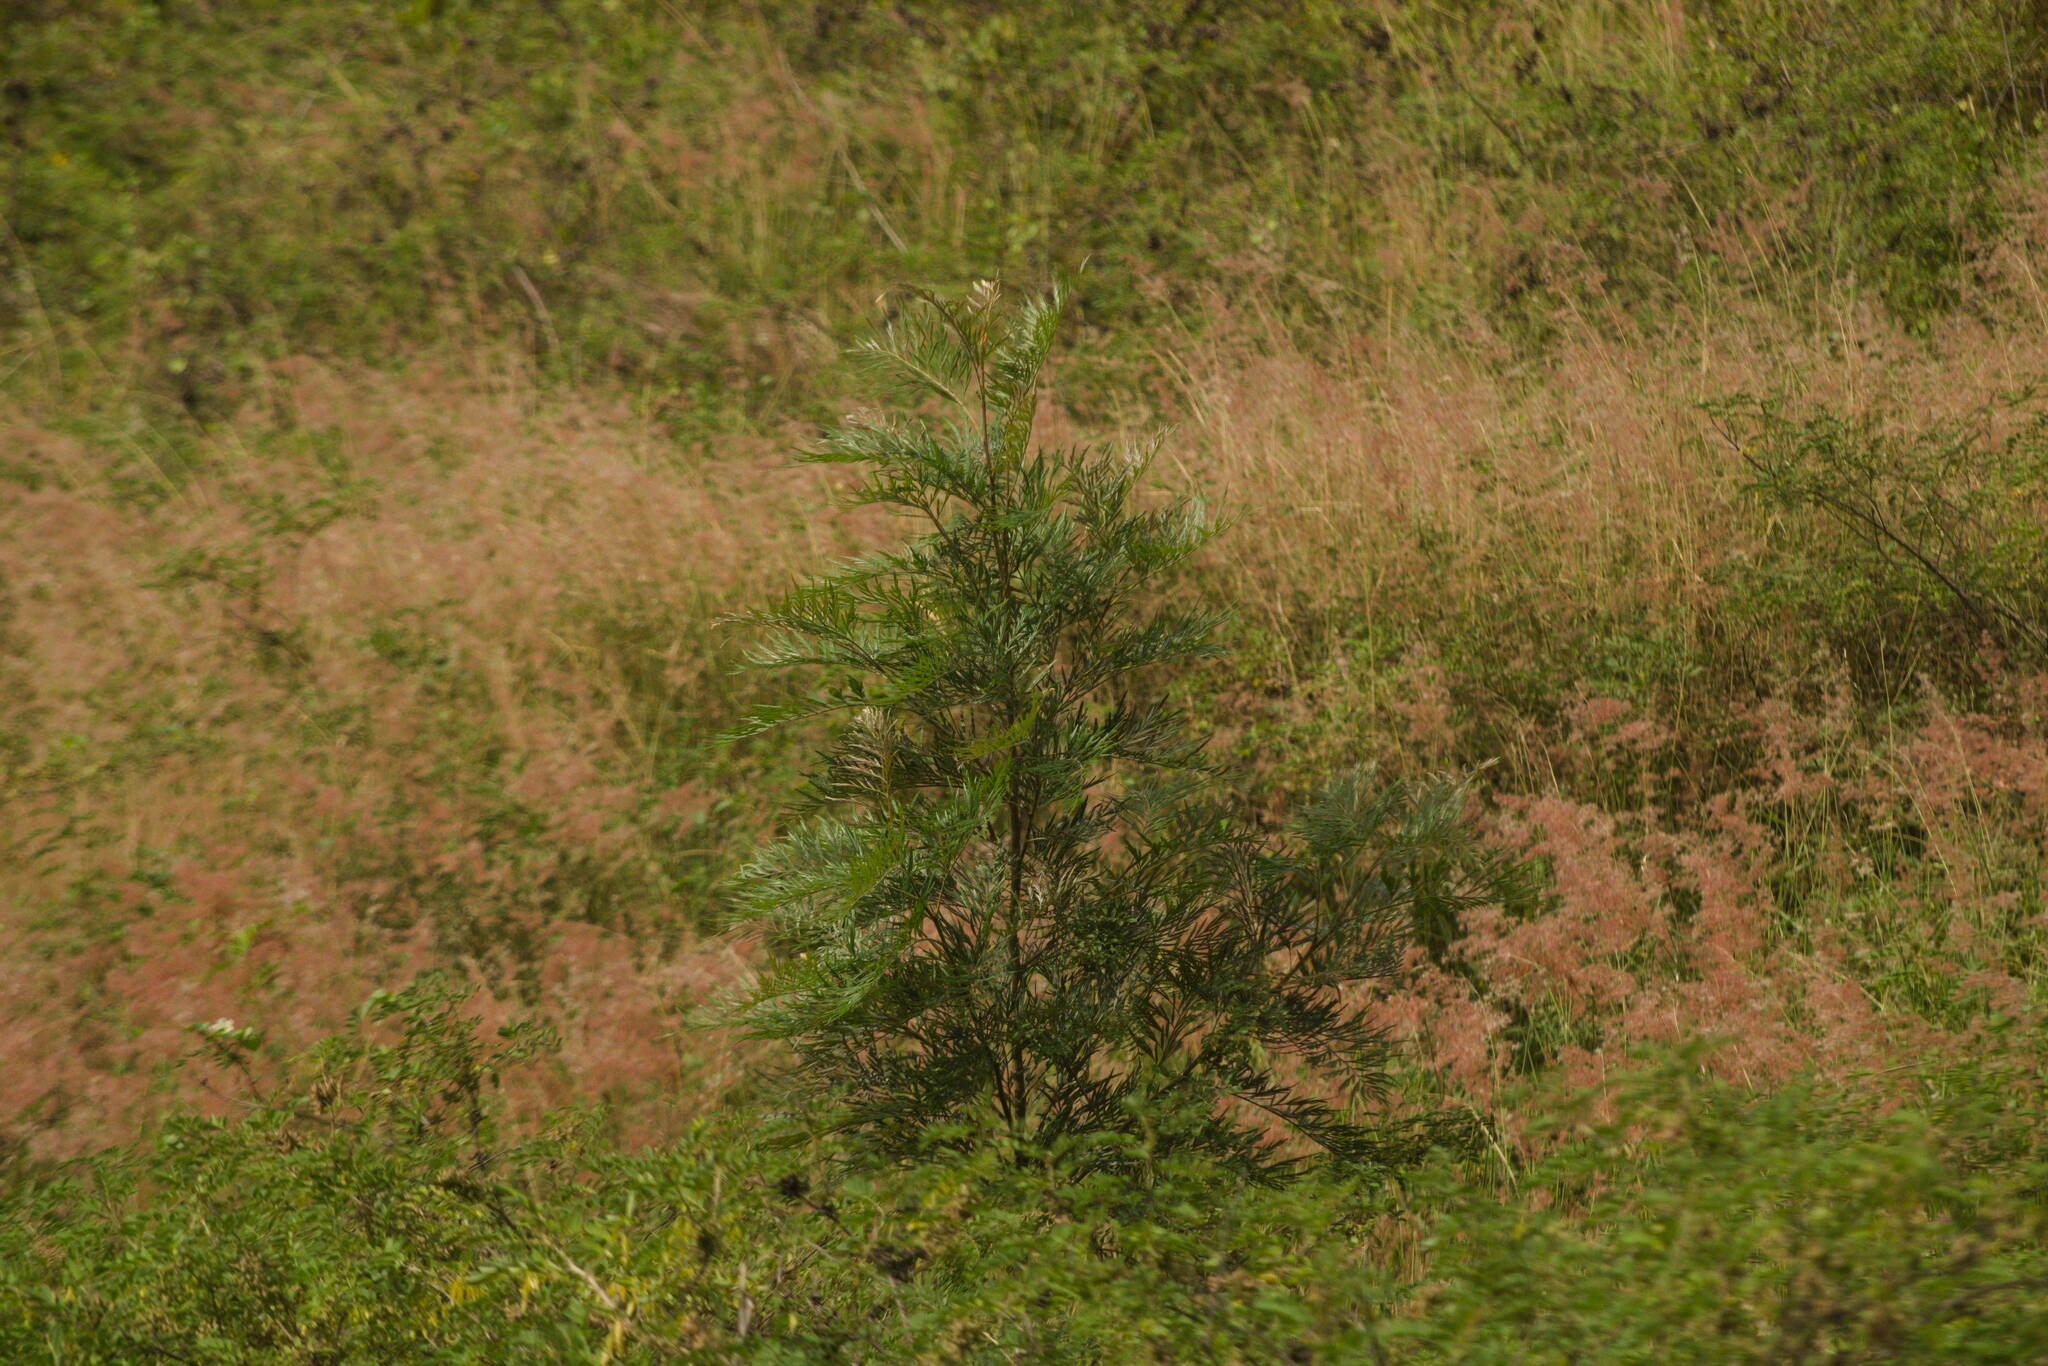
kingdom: Plantae
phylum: Tracheophyta
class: Magnoliopsida
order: Proteales
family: Proteaceae
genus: Grevillea
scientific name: Grevillea robusta
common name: Silkoak
